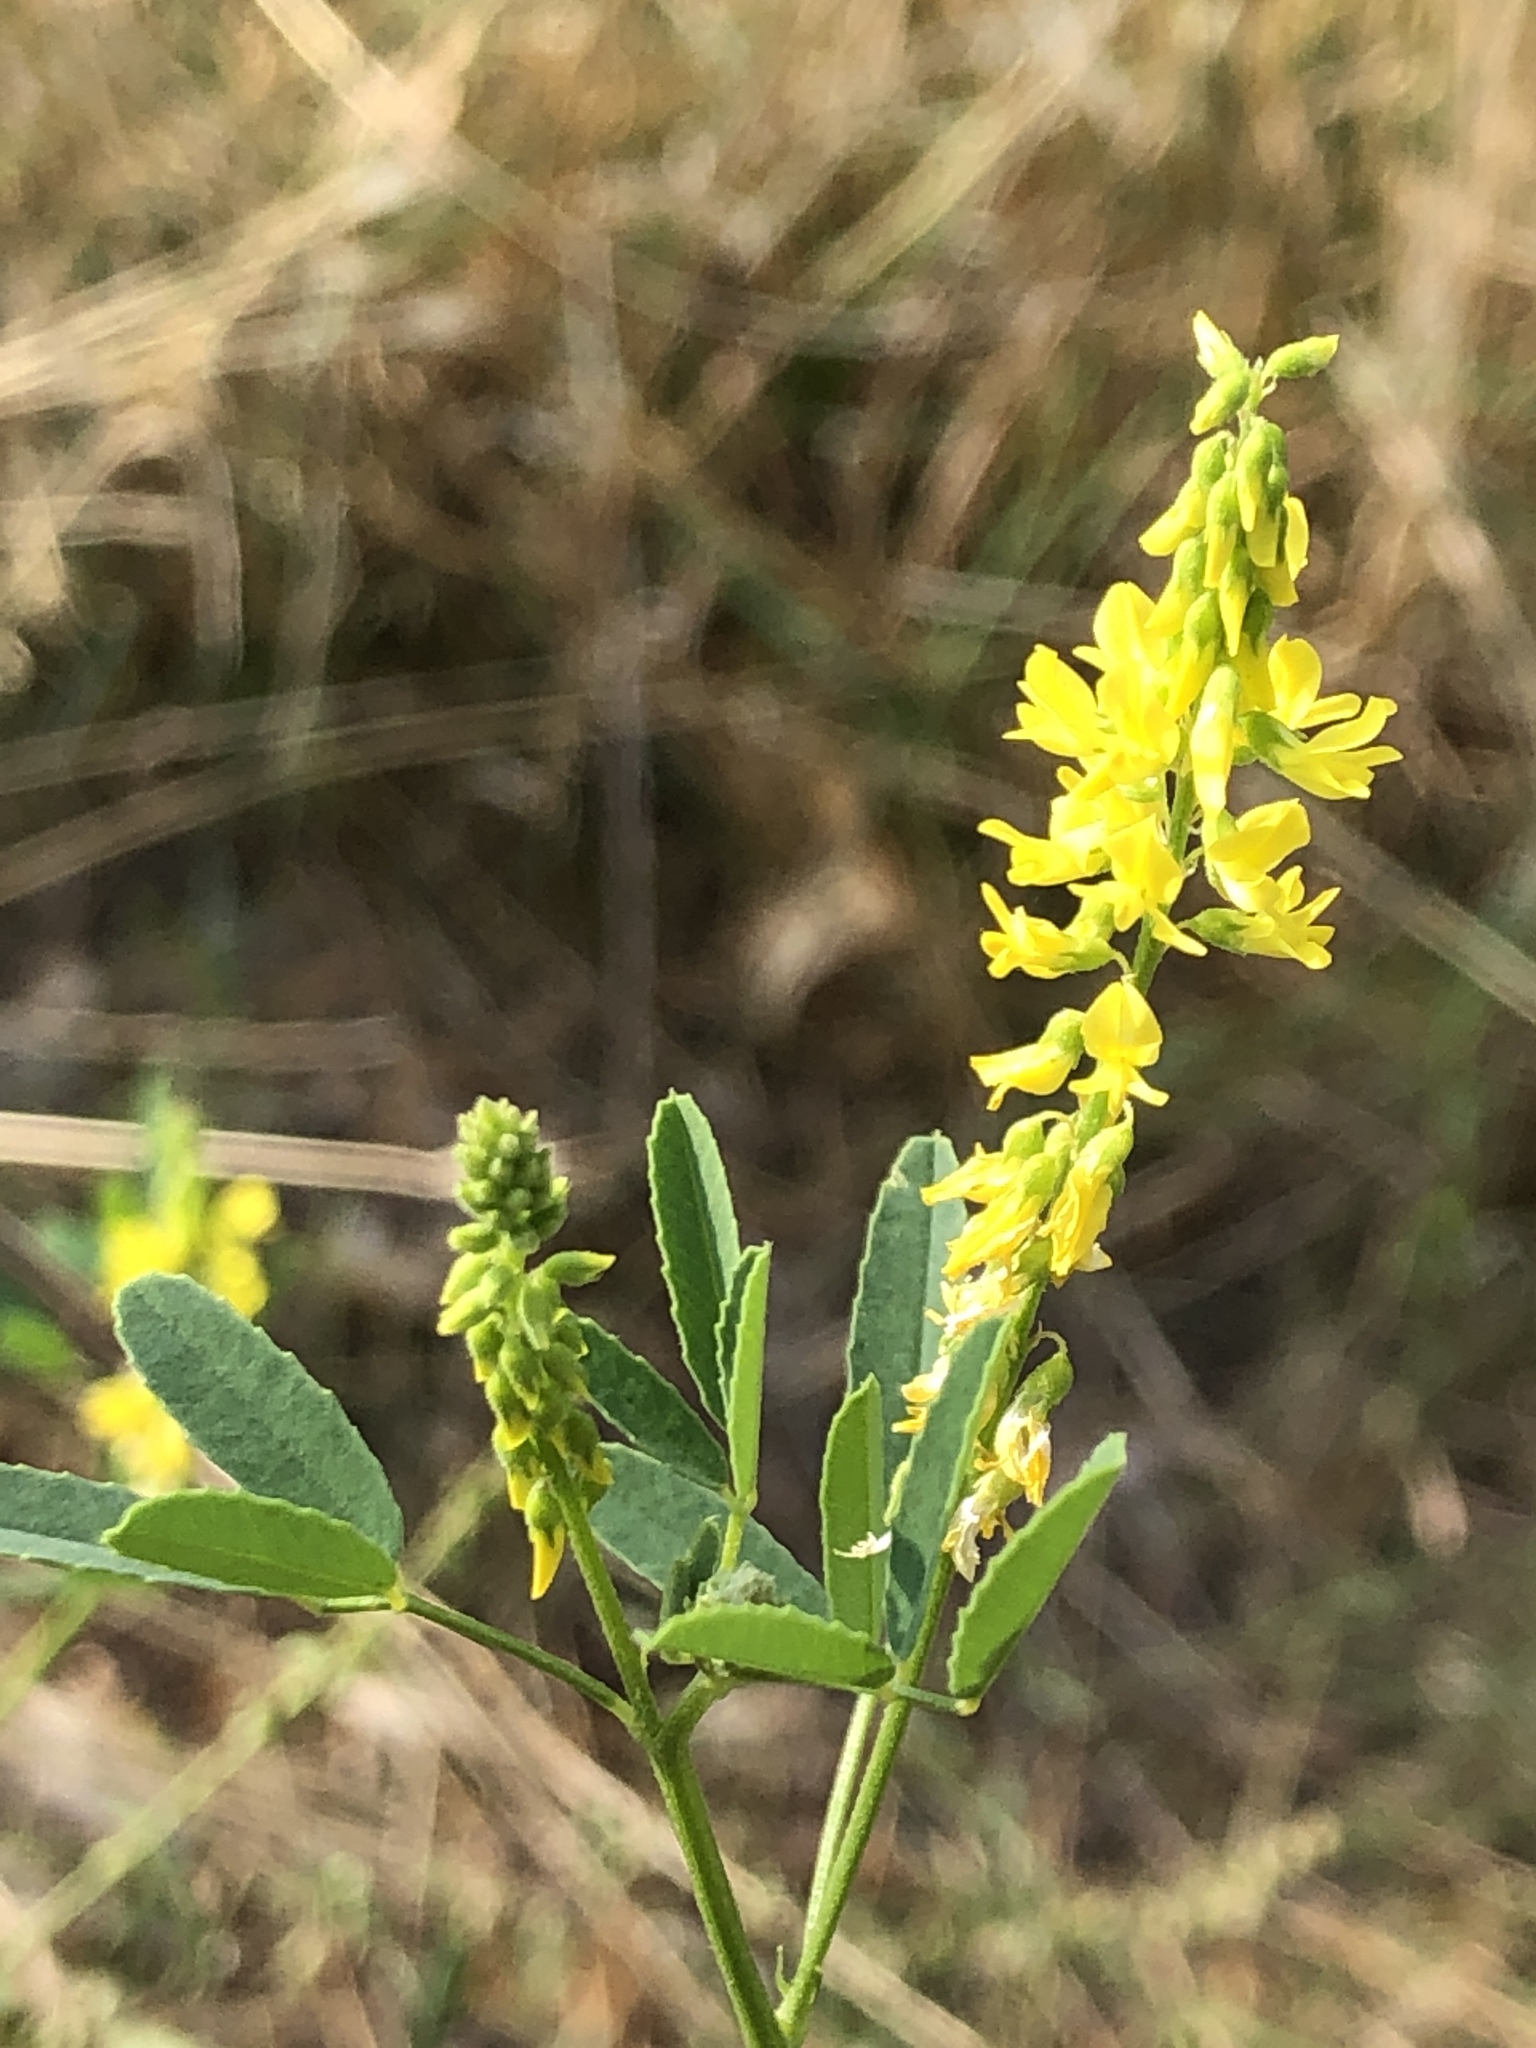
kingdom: Plantae
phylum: Tracheophyta
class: Magnoliopsida
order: Fabales
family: Fabaceae
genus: Melilotus
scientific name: Melilotus officinalis
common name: Sweetclover
